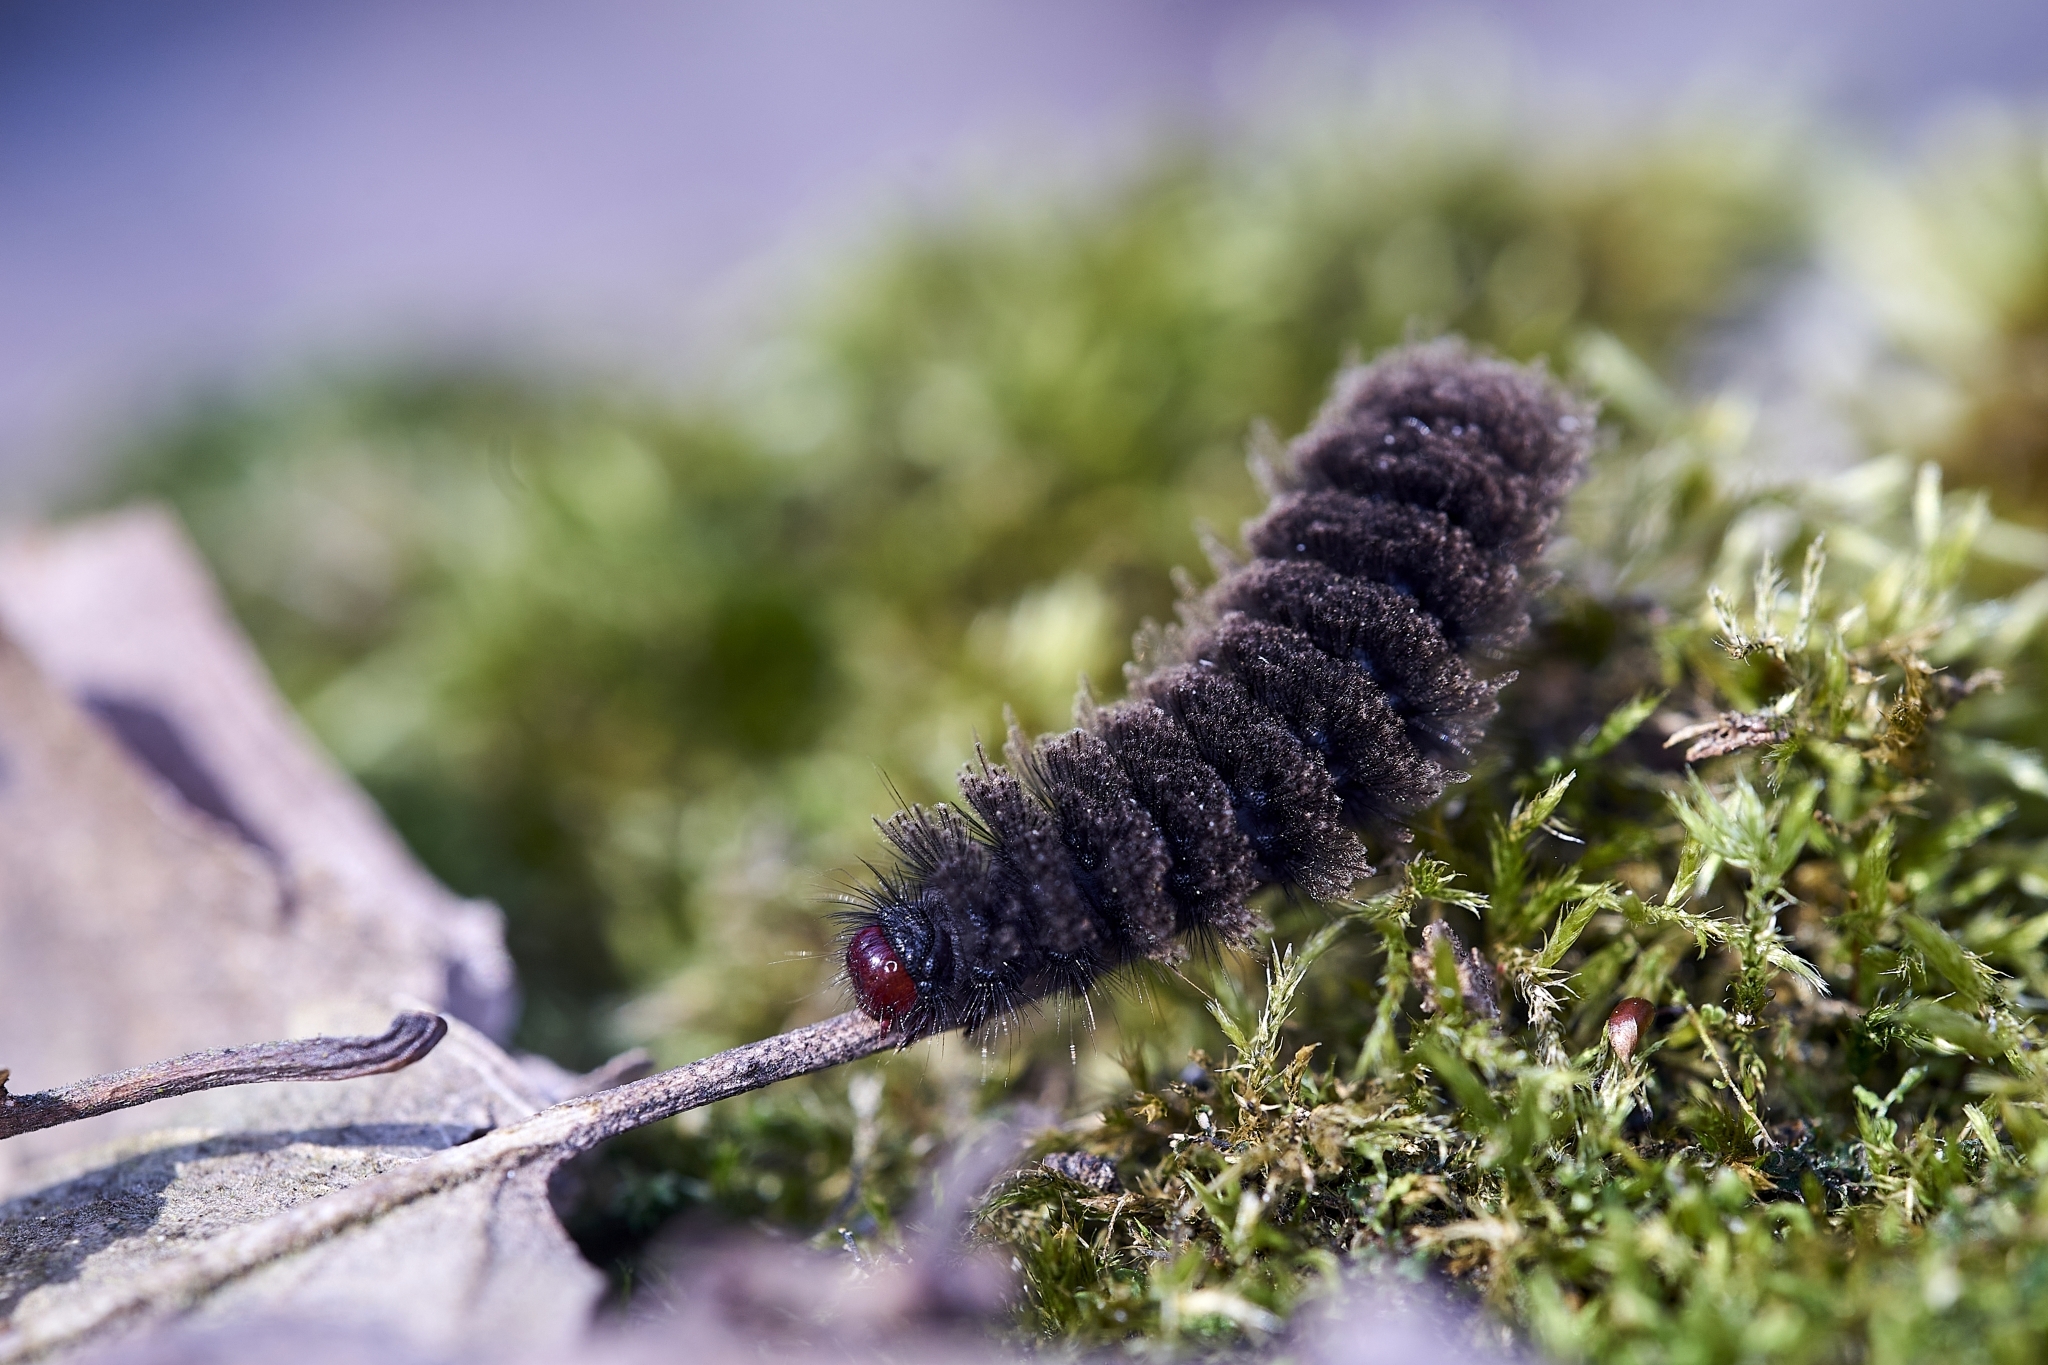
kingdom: Animalia
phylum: Arthropoda
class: Insecta
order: Lepidoptera
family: Erebidae
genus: Amata
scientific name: Amata phegea
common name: Nine-spotted
